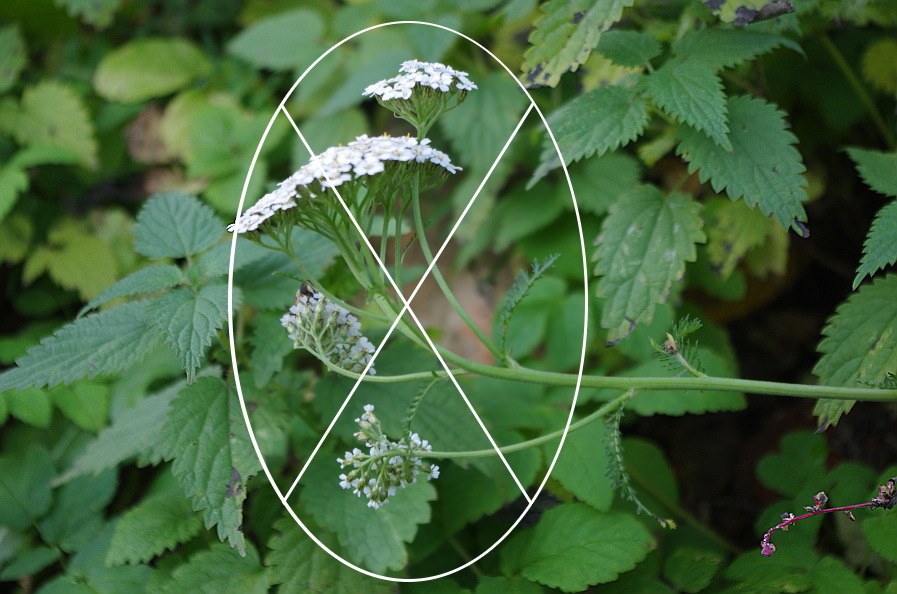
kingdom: Plantae
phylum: Tracheophyta
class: Magnoliopsida
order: Rosales
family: Urticaceae
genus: Urtica
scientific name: Urtica dioica
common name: Common nettle
